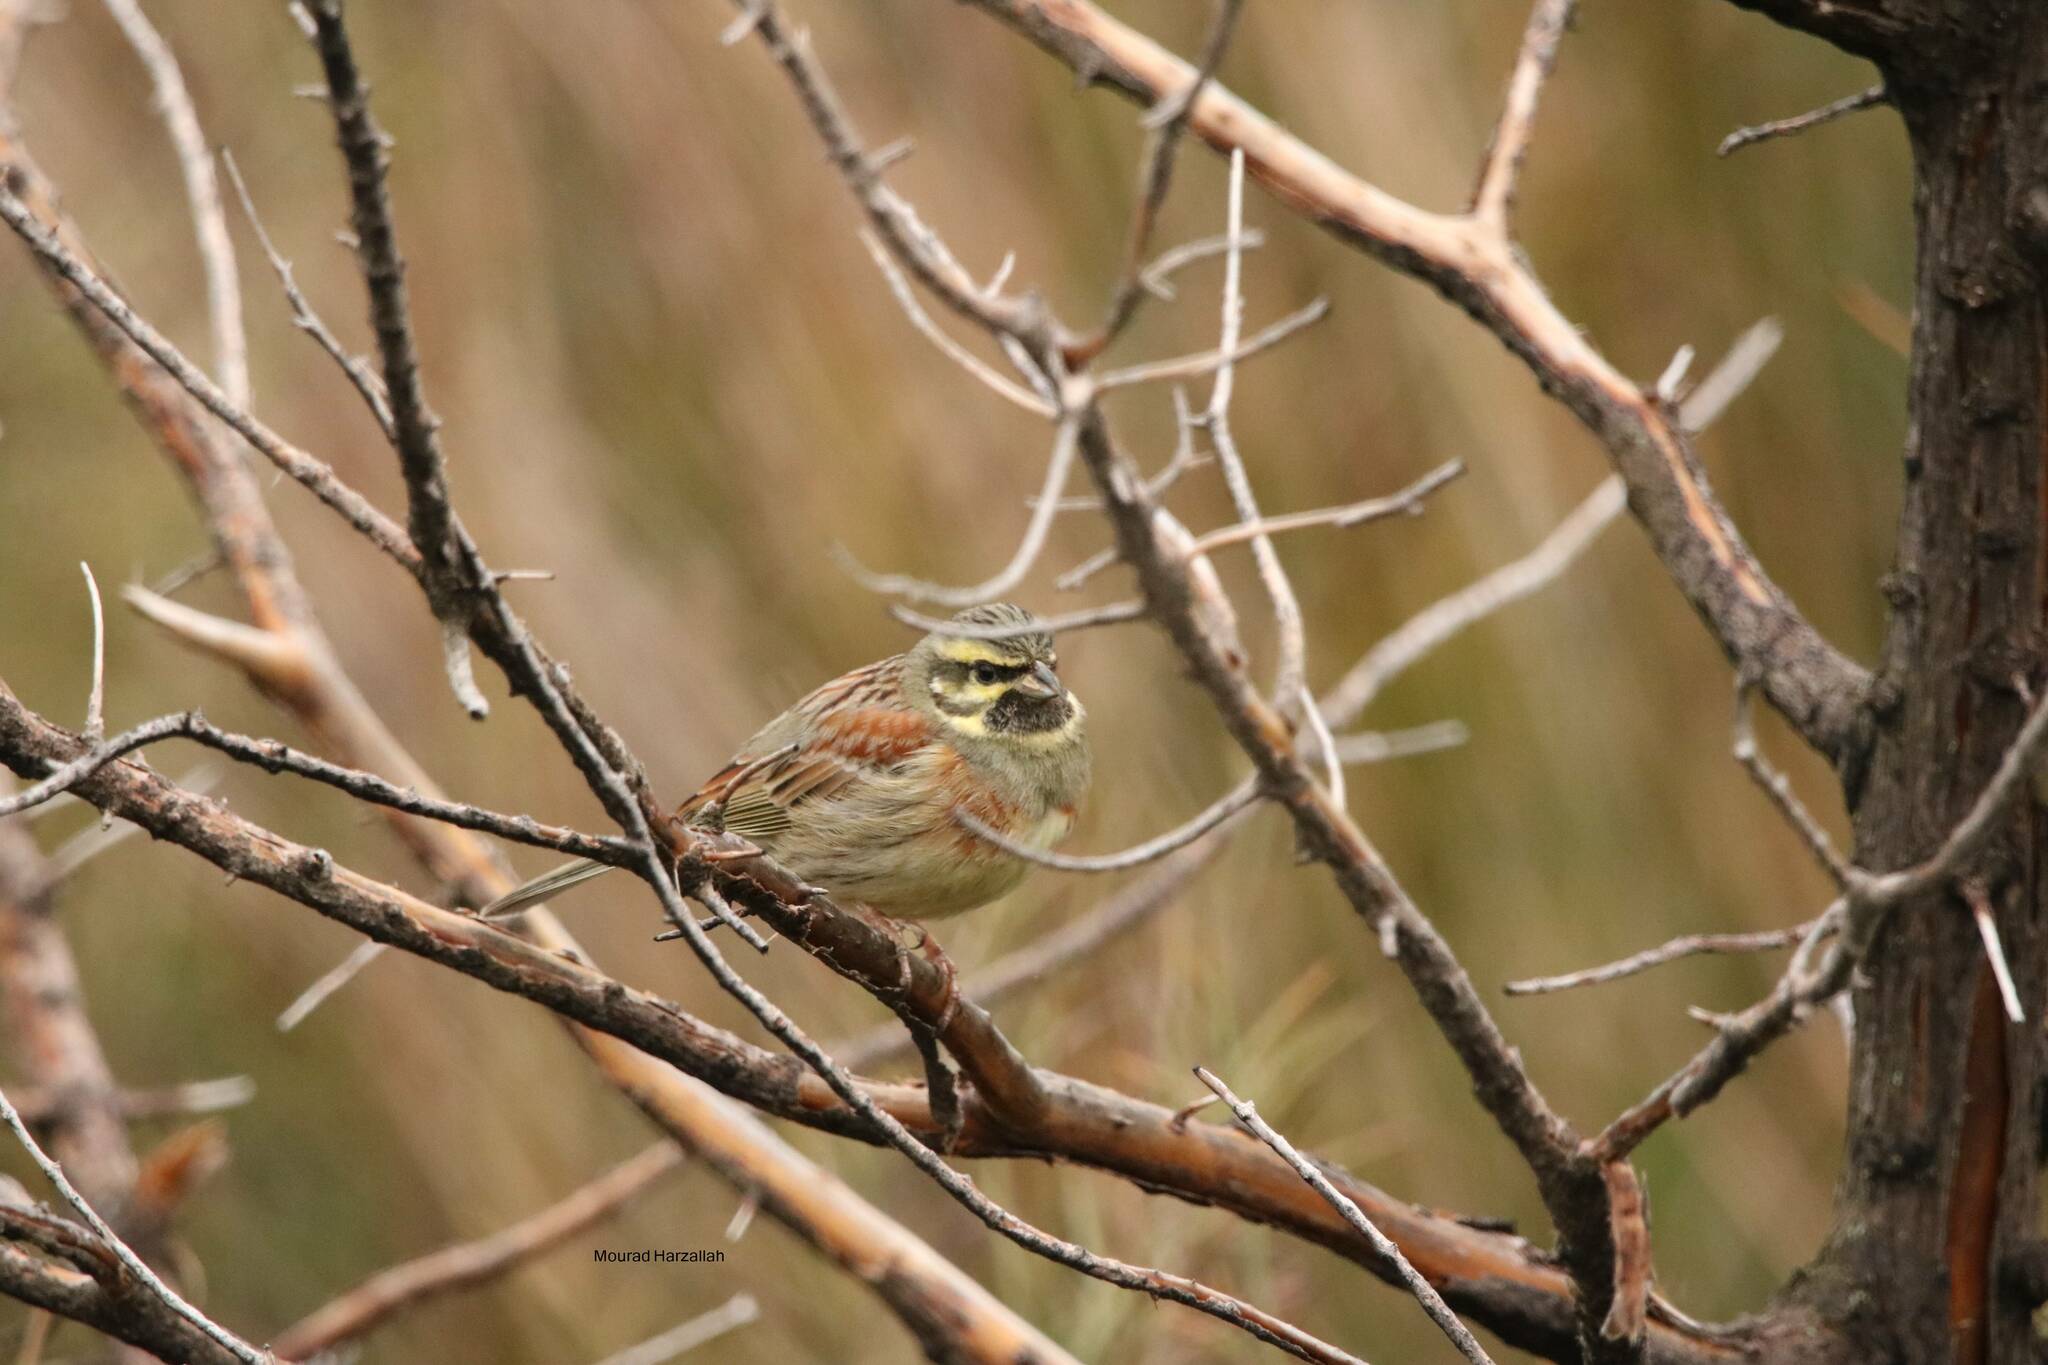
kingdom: Animalia
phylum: Chordata
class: Aves
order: Passeriformes
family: Emberizidae
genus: Emberiza
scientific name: Emberiza cirlus
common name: Cirl bunting
